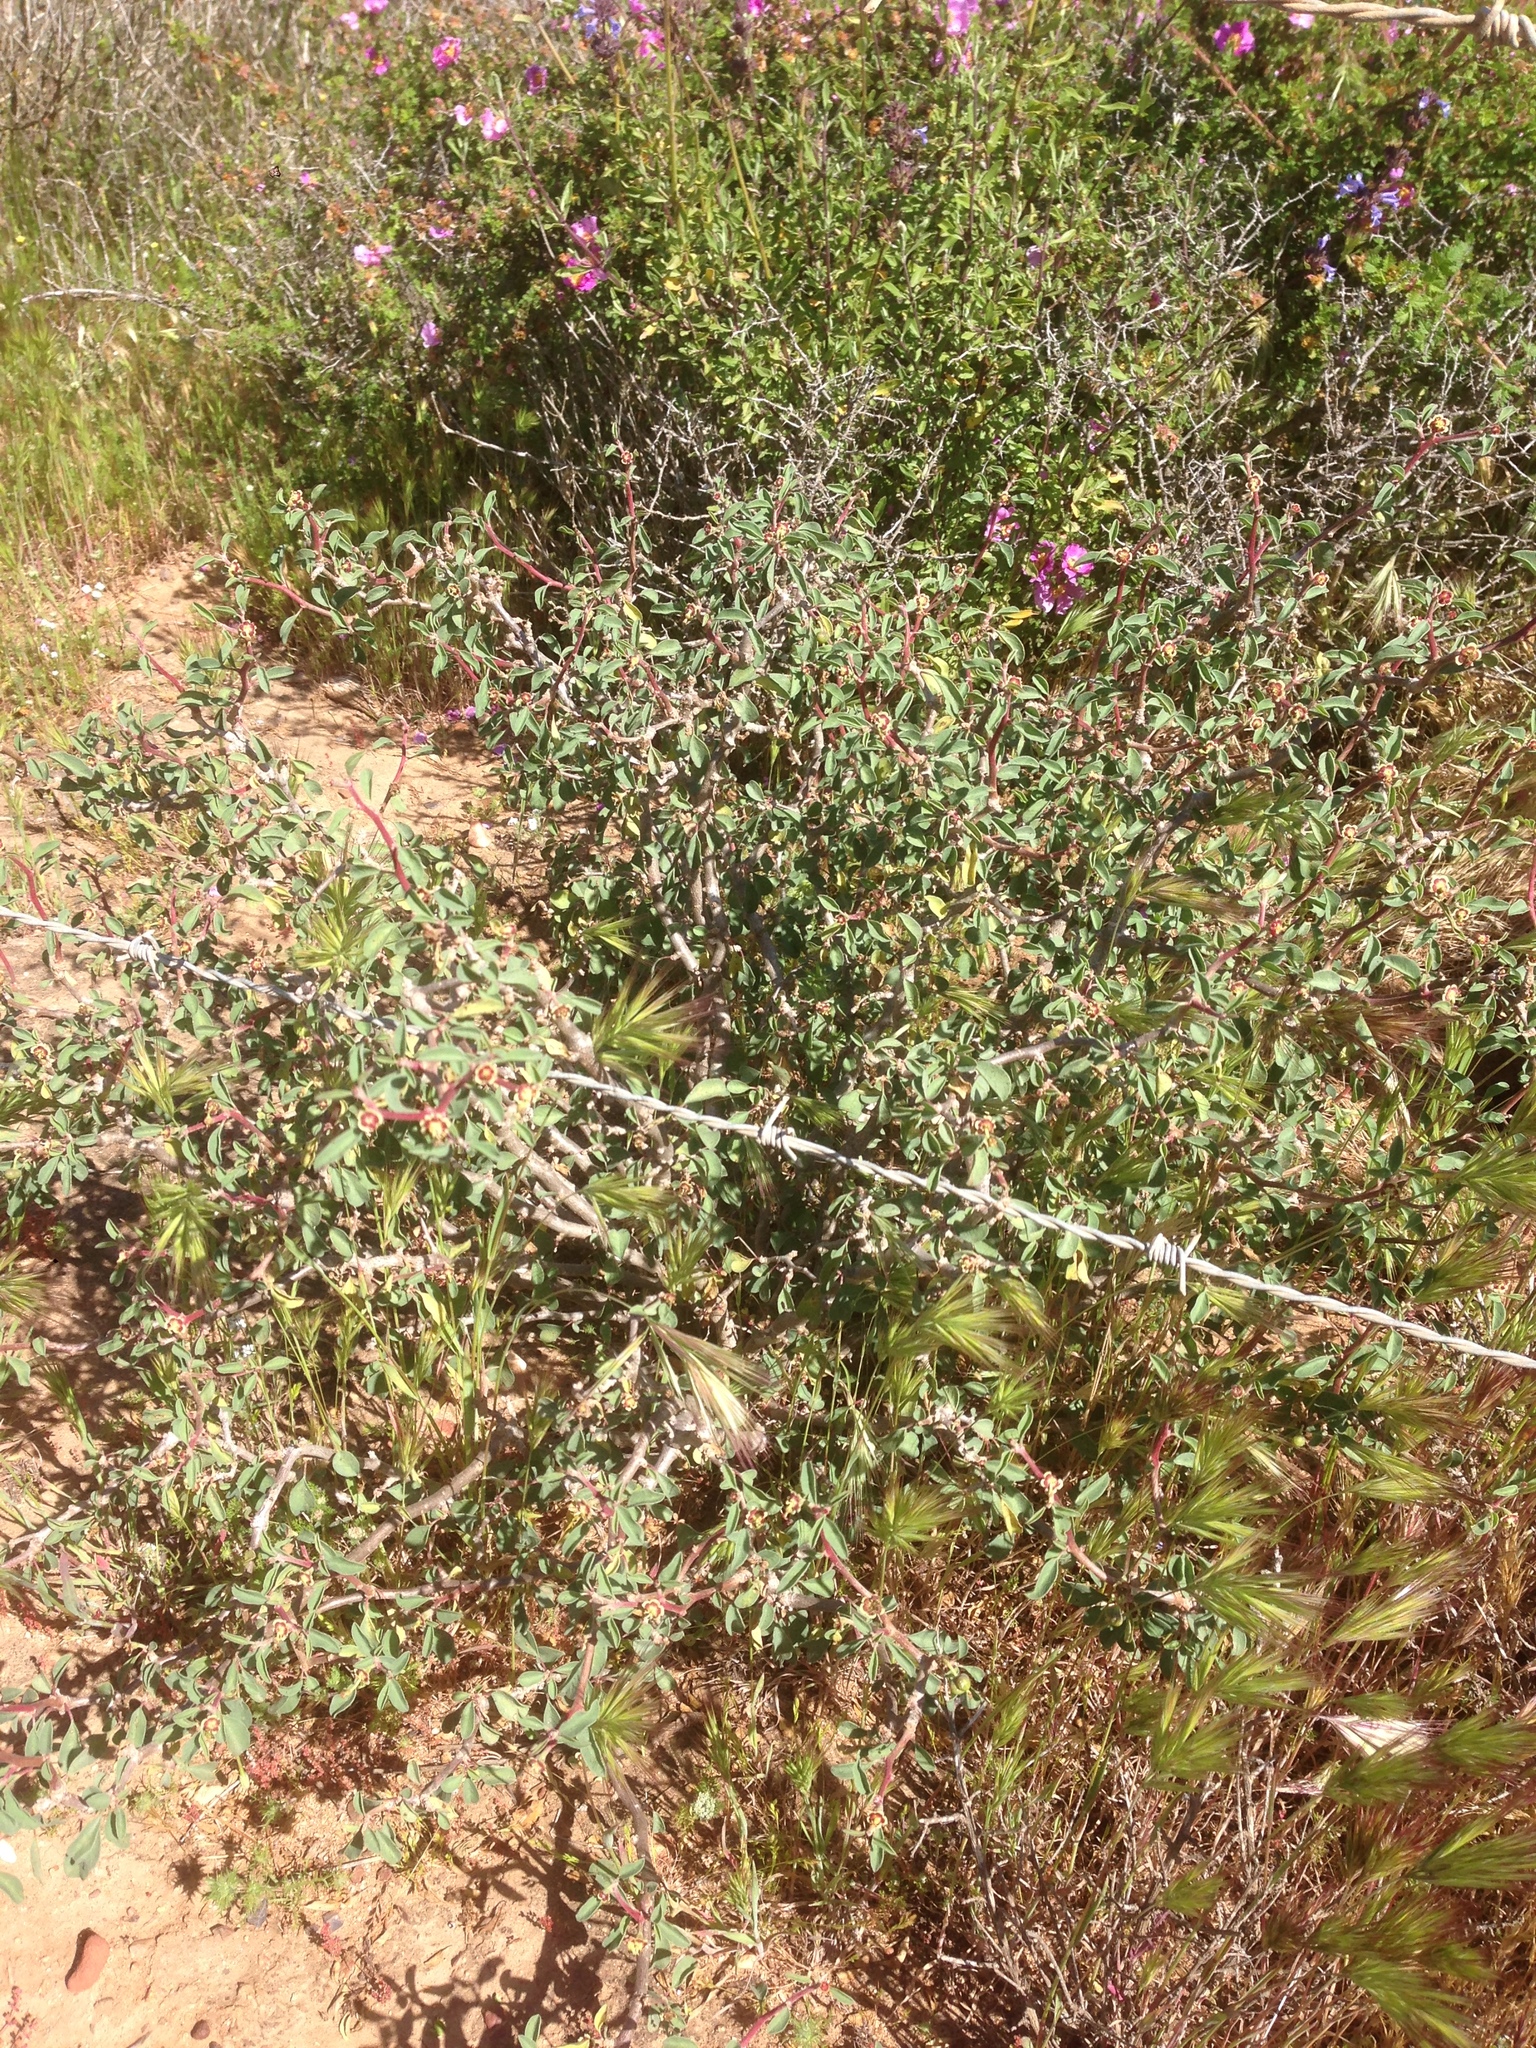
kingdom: Plantae
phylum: Tracheophyta
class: Magnoliopsida
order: Malpighiales
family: Euphorbiaceae
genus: Euphorbia
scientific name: Euphorbia misera
